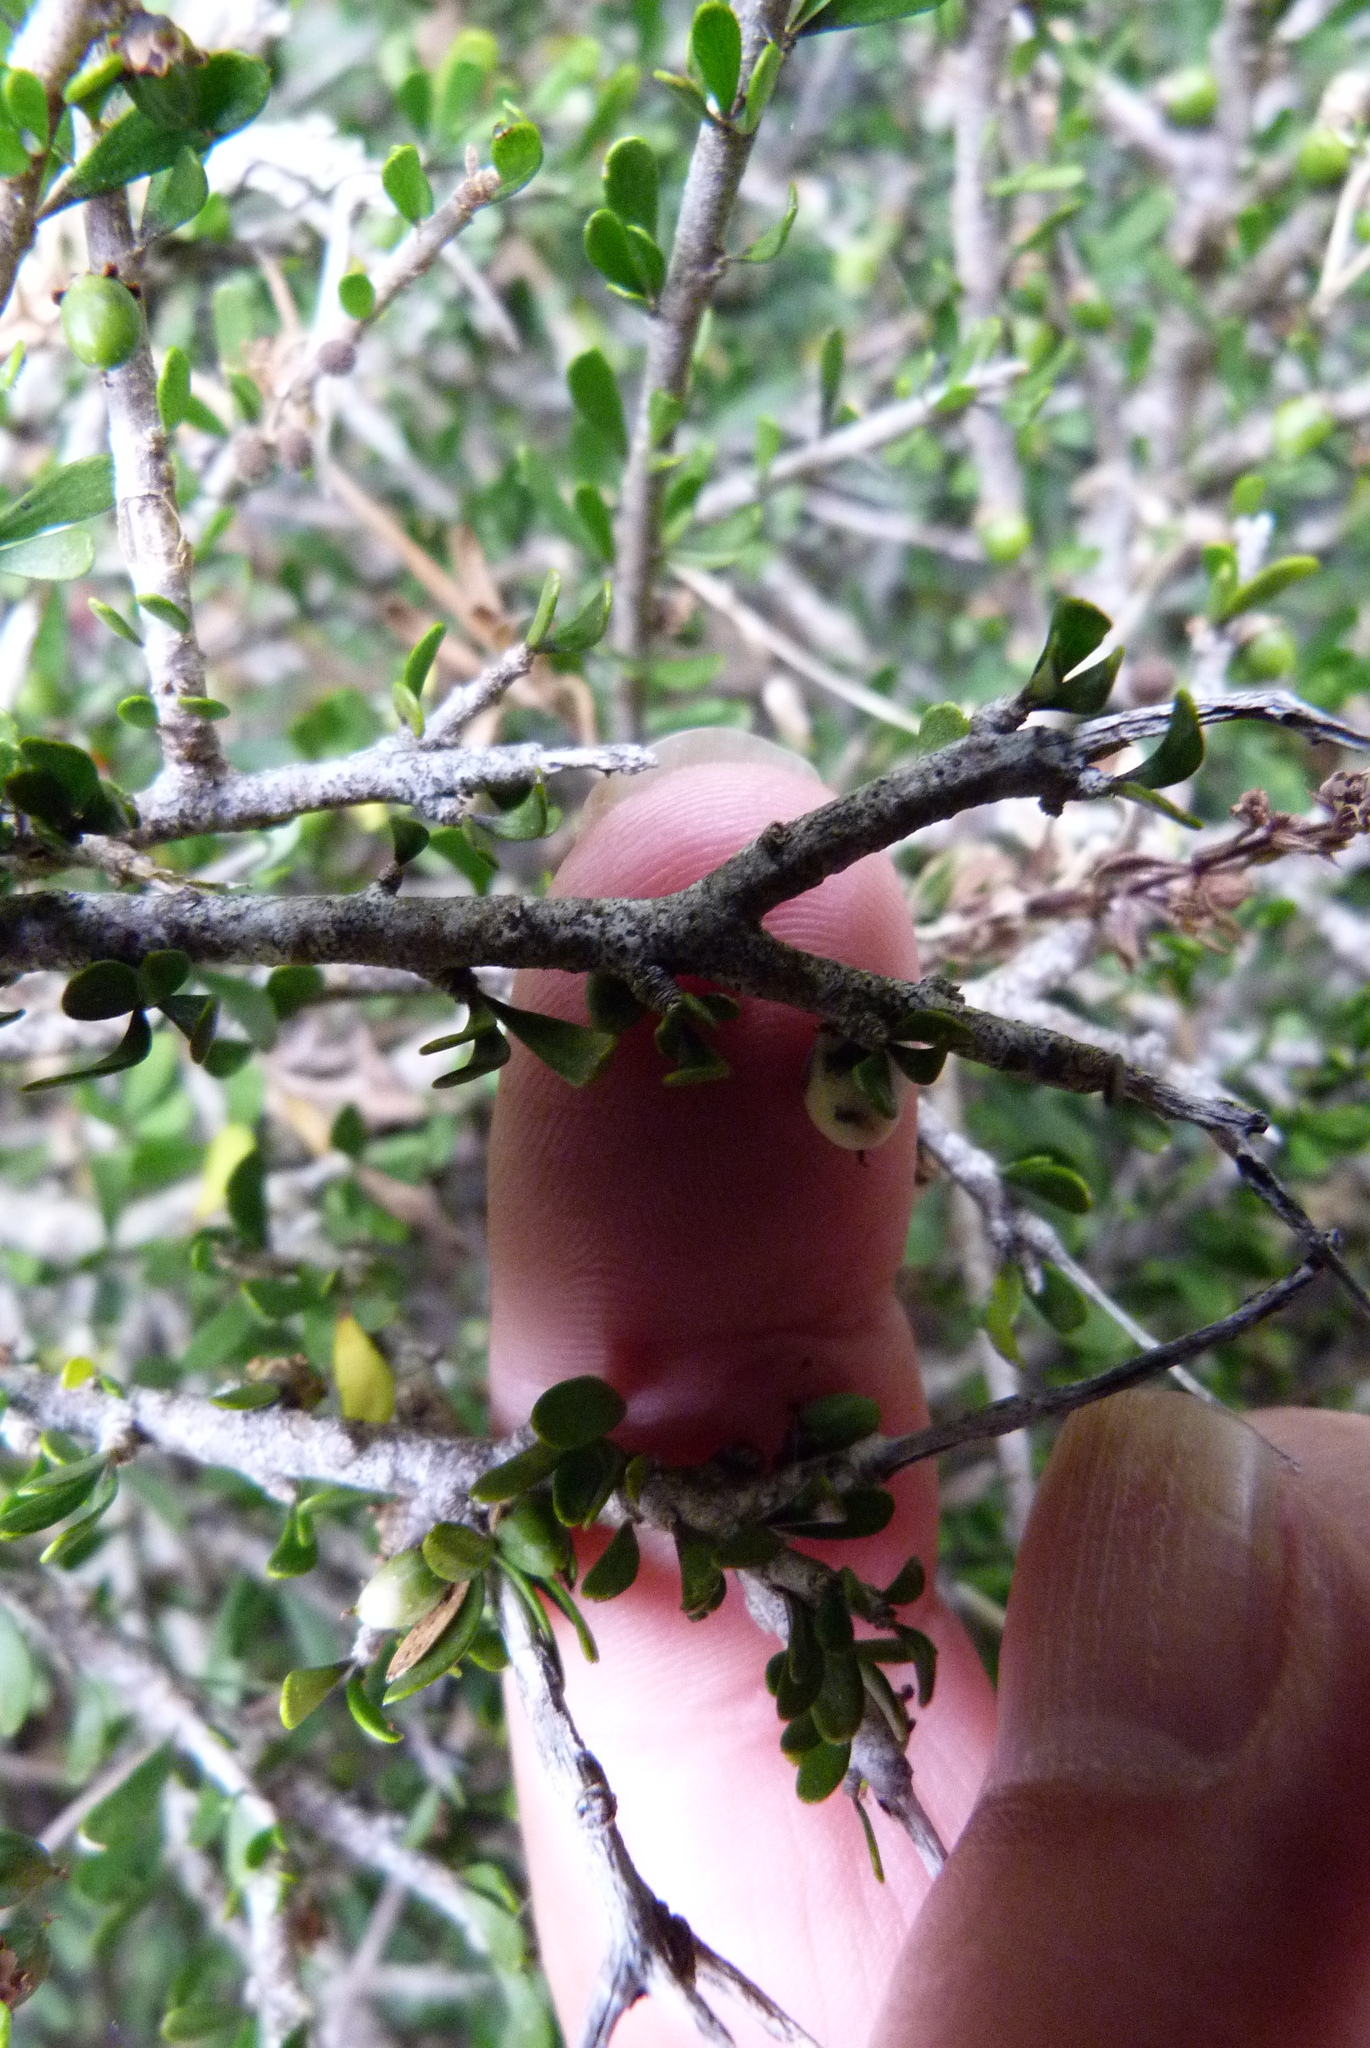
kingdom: Plantae
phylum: Tracheophyta
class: Magnoliopsida
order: Malpighiales
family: Violaceae
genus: Melicytus
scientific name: Melicytus alpinus
